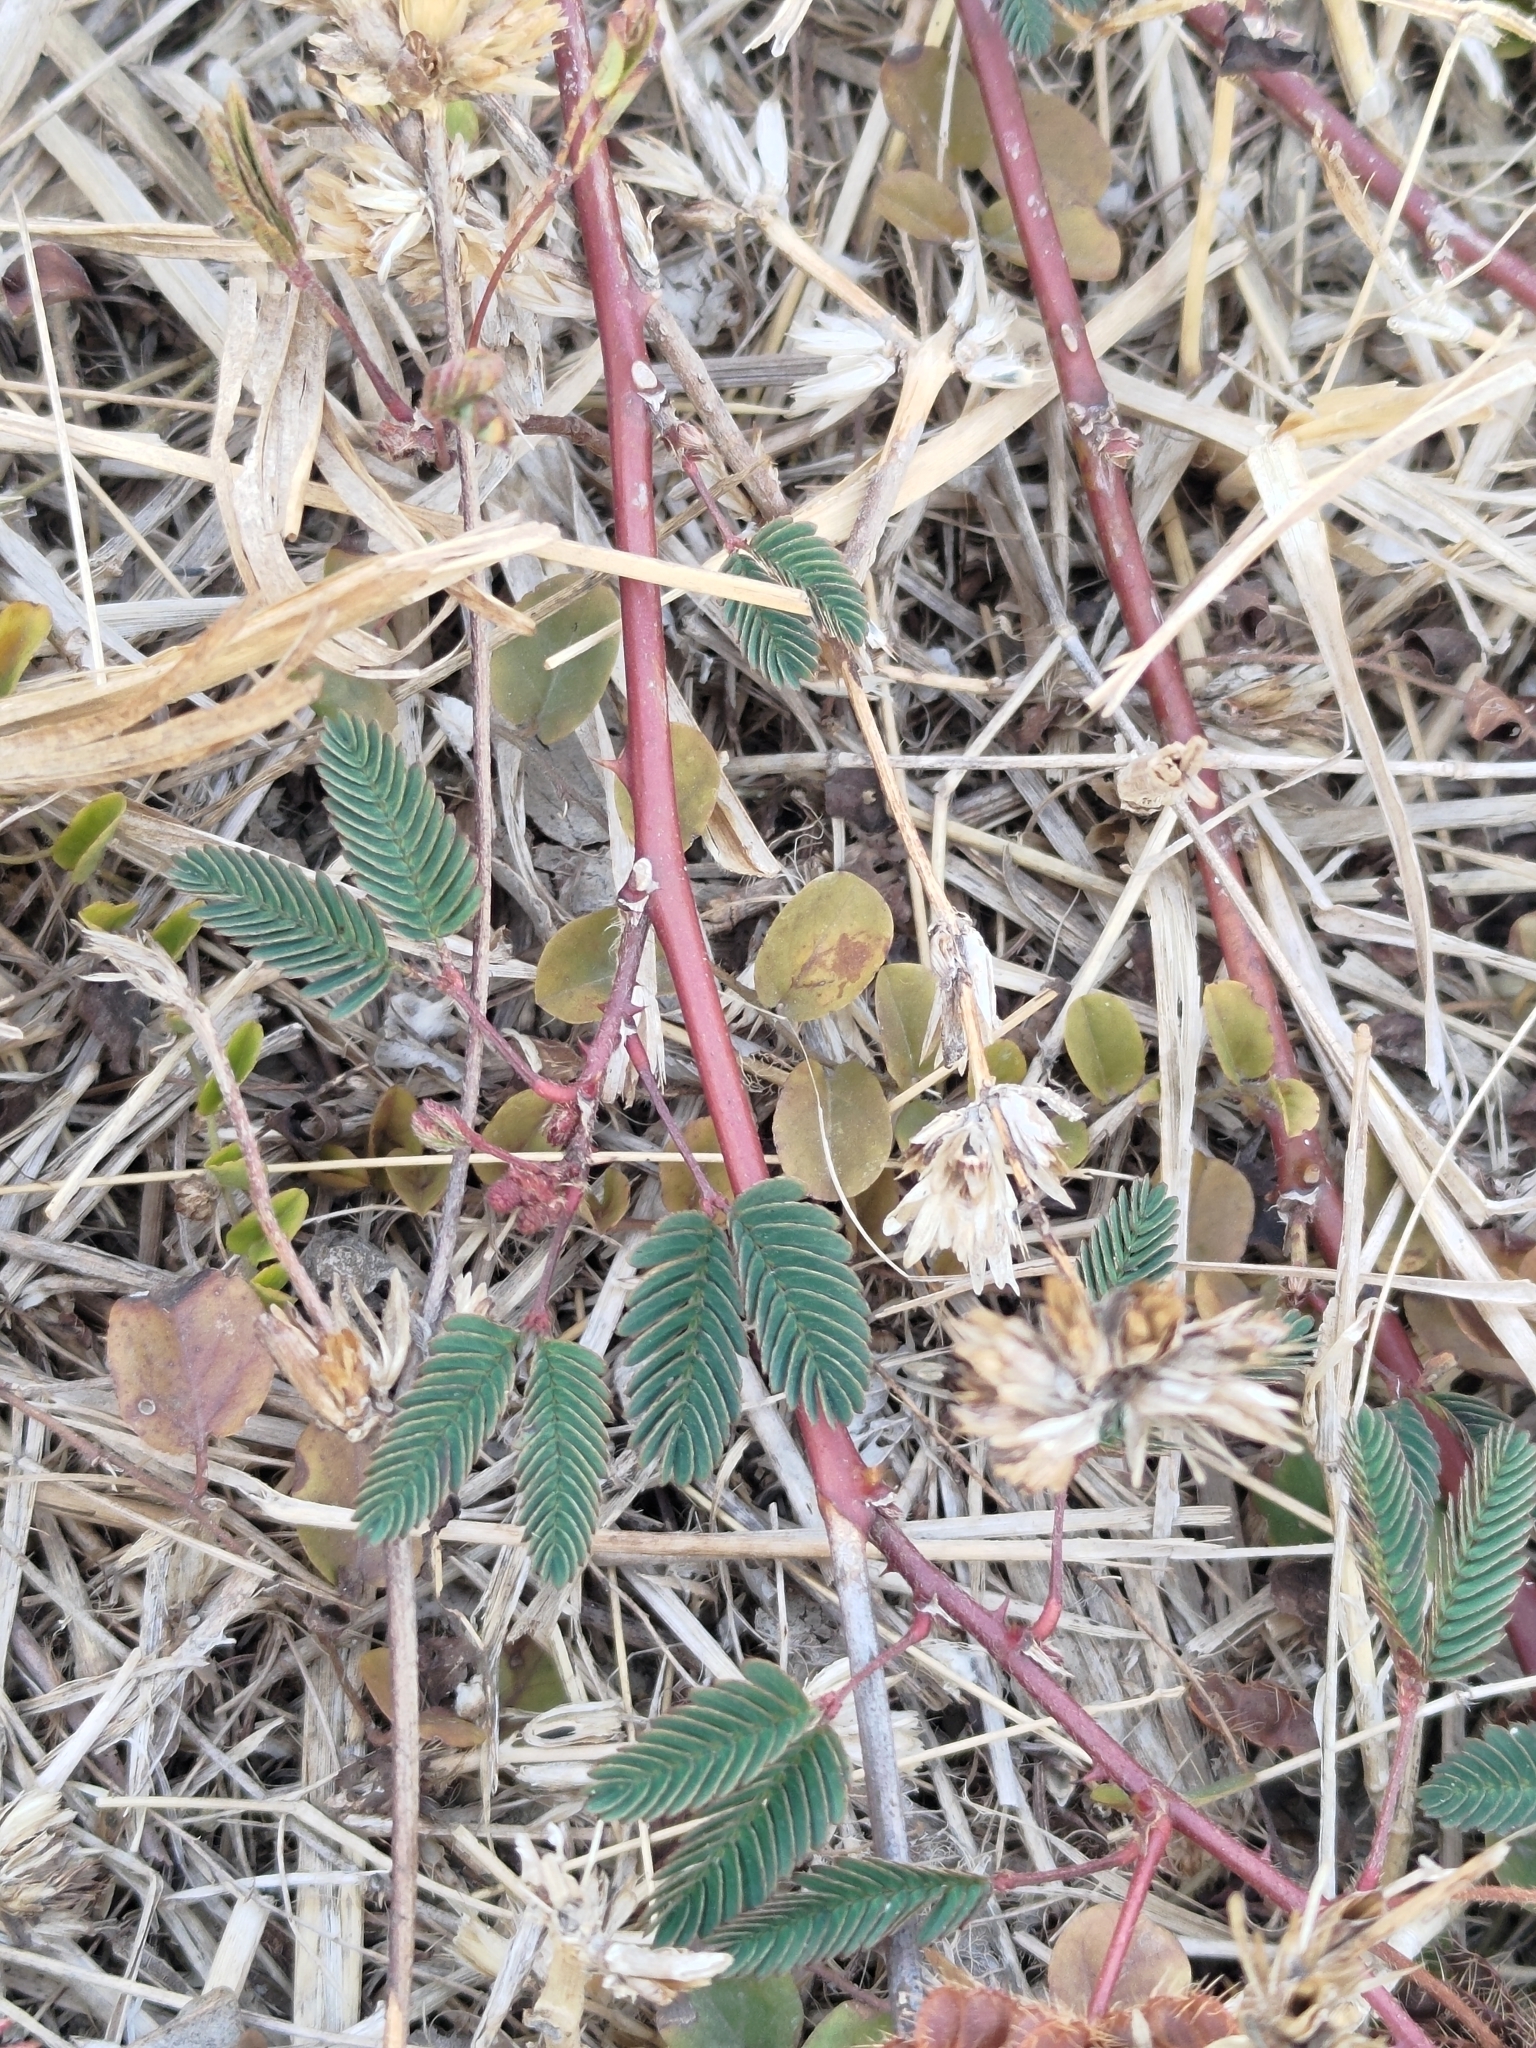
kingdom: Plantae
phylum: Tracheophyta
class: Magnoliopsida
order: Fabales
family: Fabaceae
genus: Mimosa
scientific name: Mimosa pudica
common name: Sensitive plant
